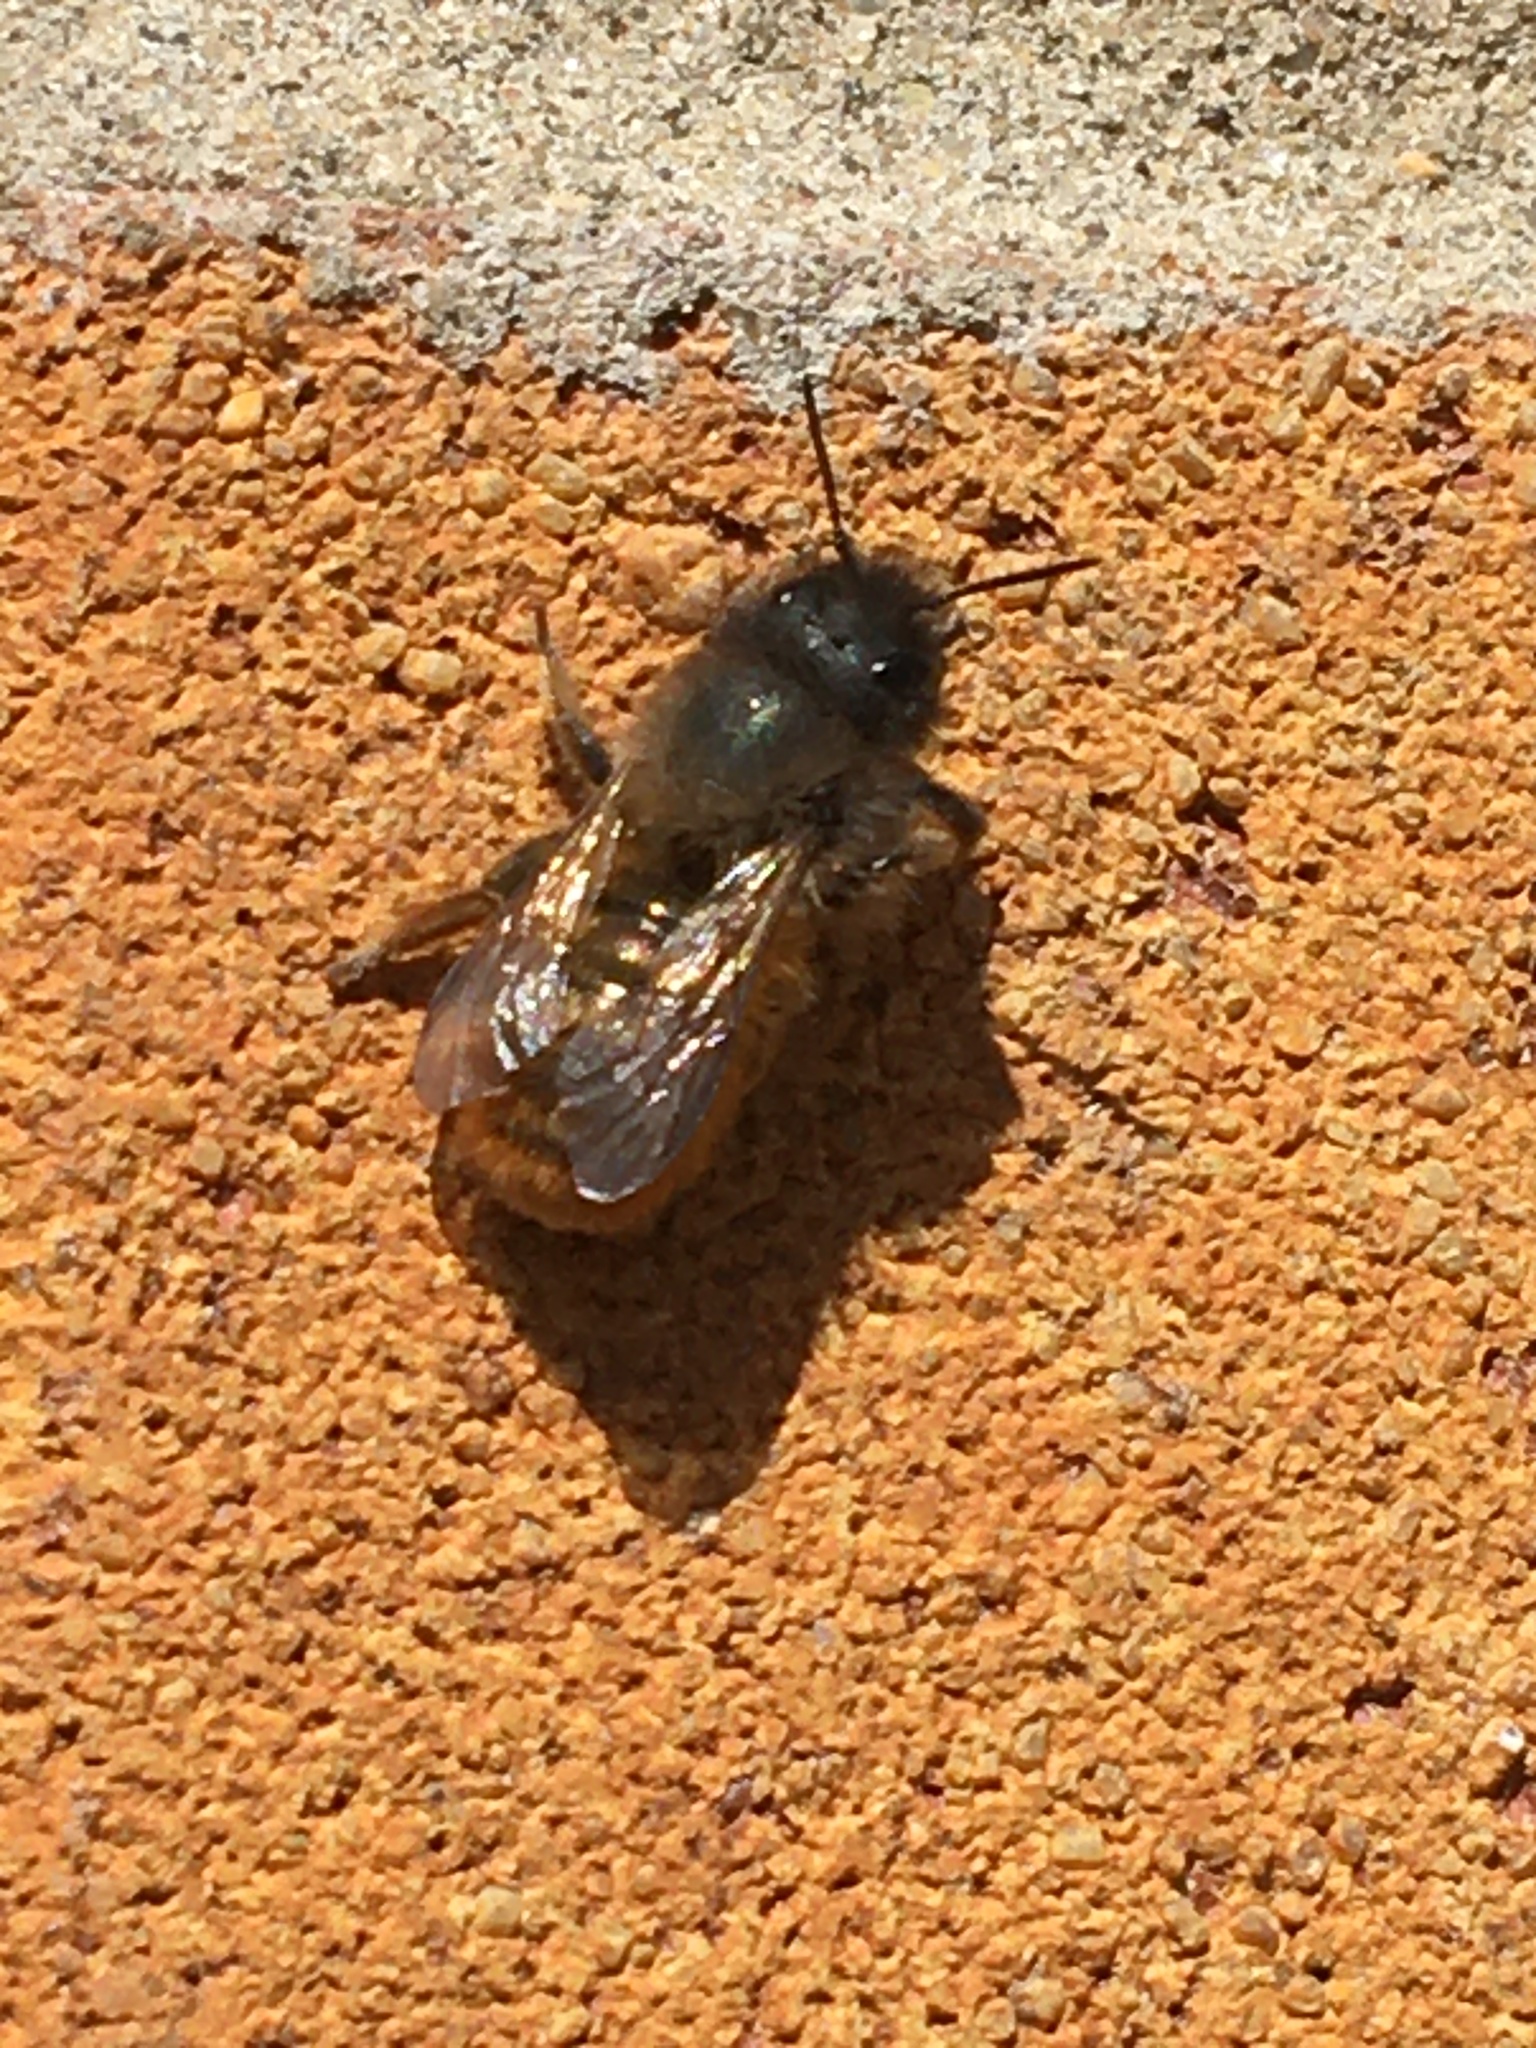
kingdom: Animalia
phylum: Arthropoda
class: Insecta
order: Hymenoptera
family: Megachilidae
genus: Osmia
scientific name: Osmia bicornis
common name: Red mason bee
